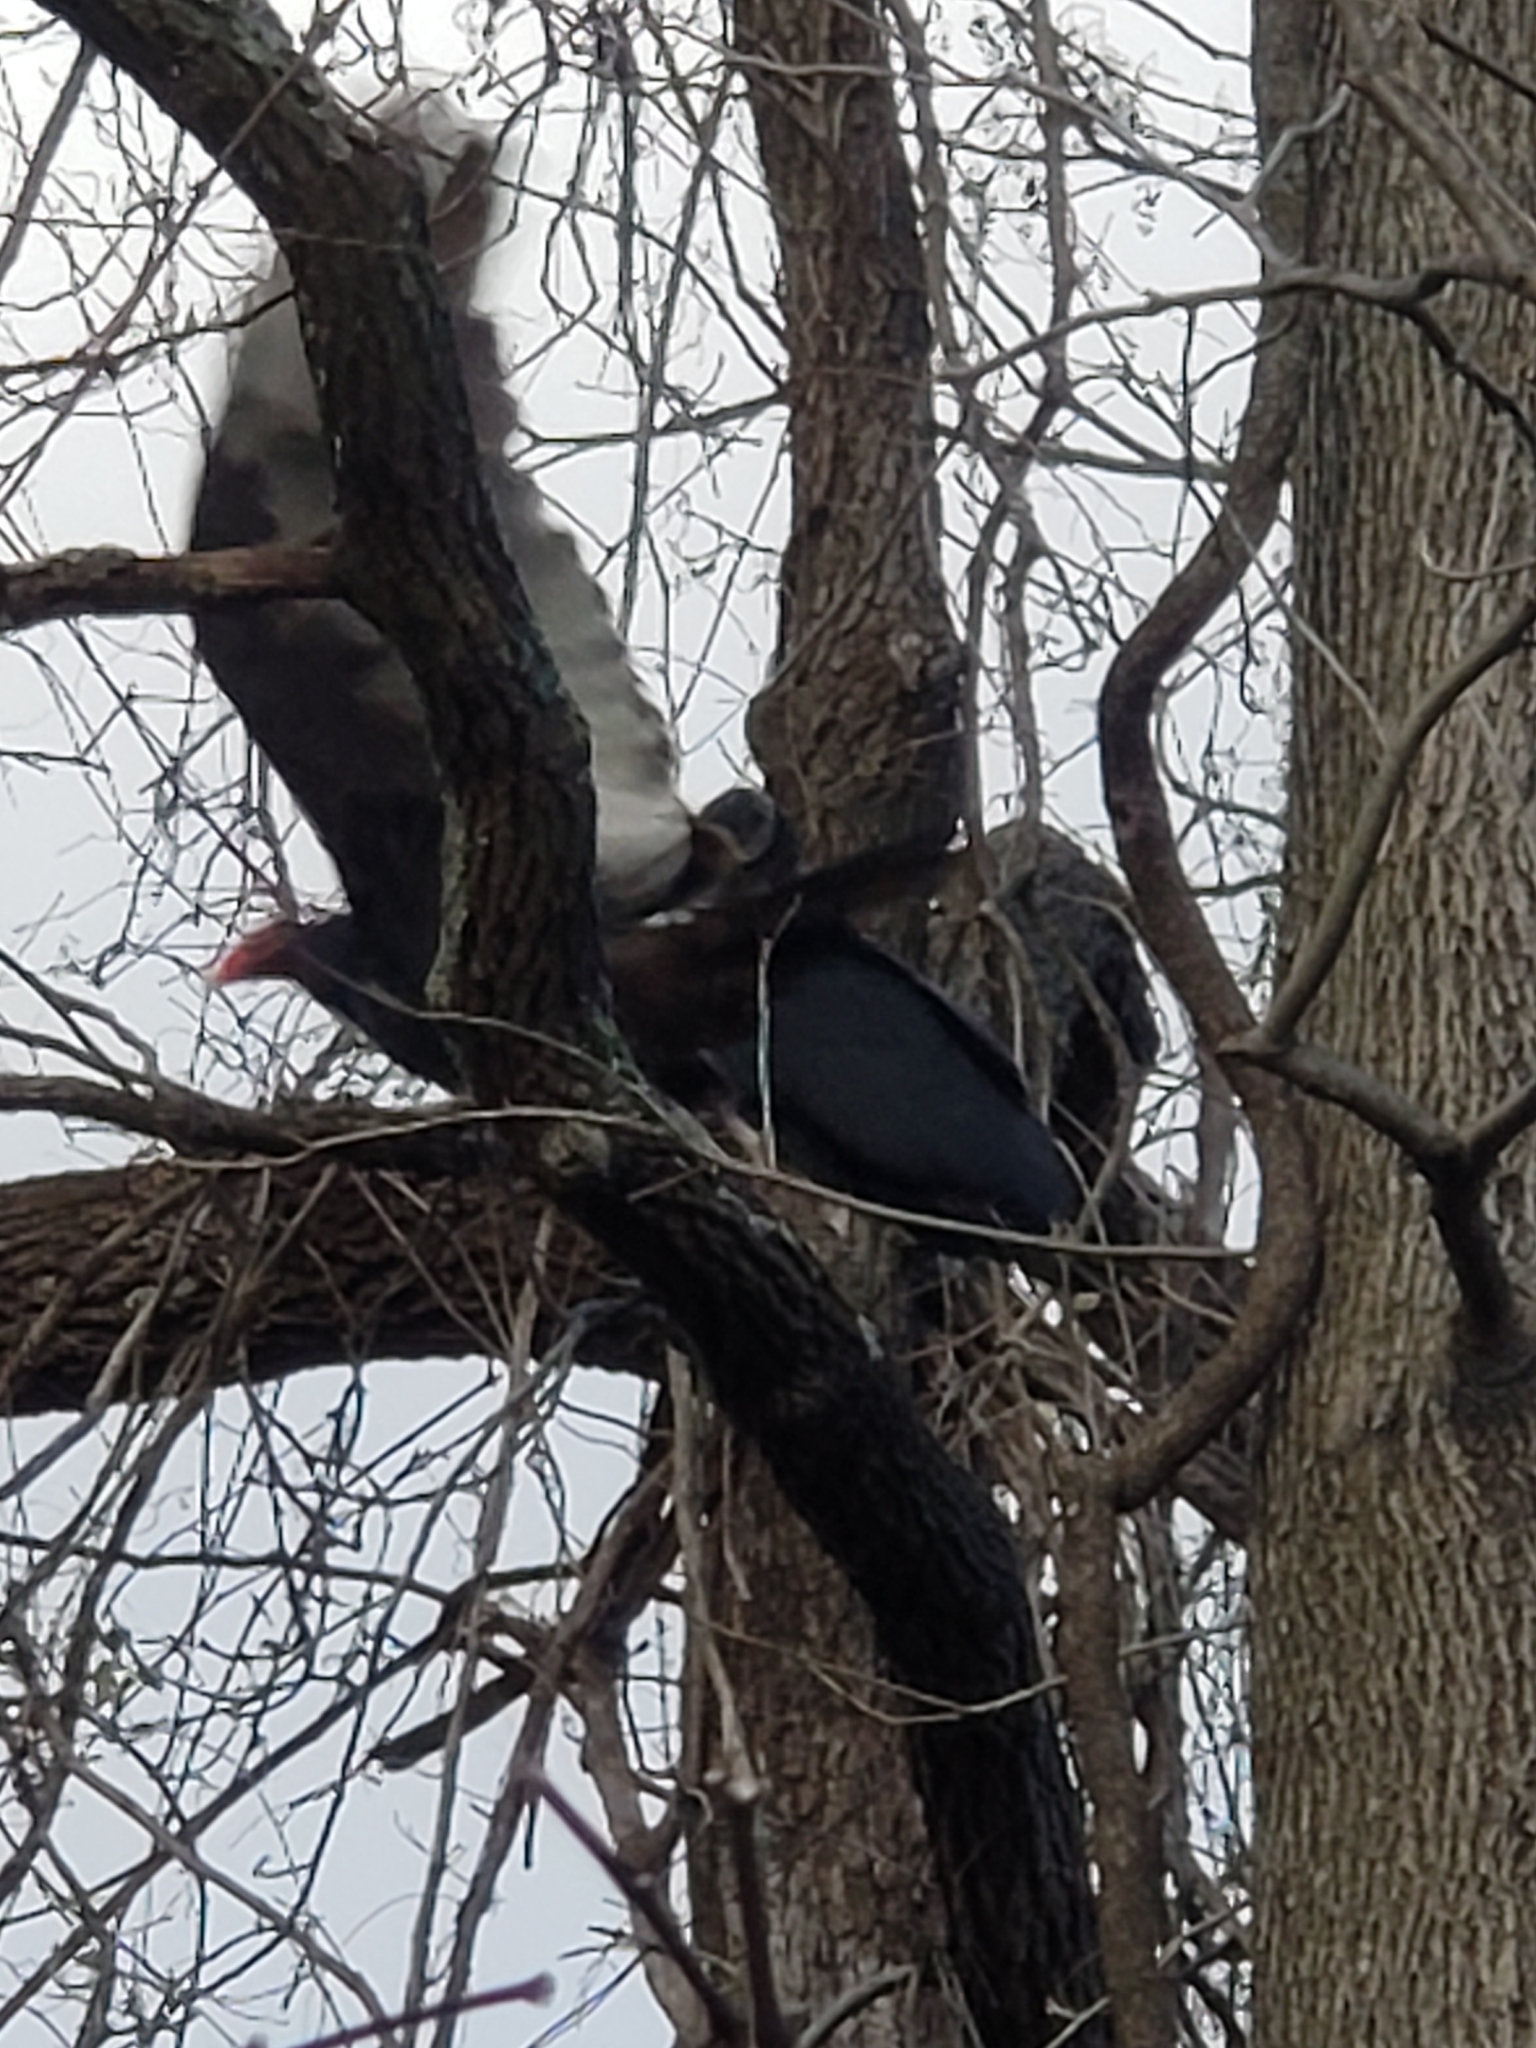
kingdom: Animalia
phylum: Chordata
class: Aves
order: Accipitriformes
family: Cathartidae
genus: Coragyps
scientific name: Coragyps atratus
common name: Black vulture
